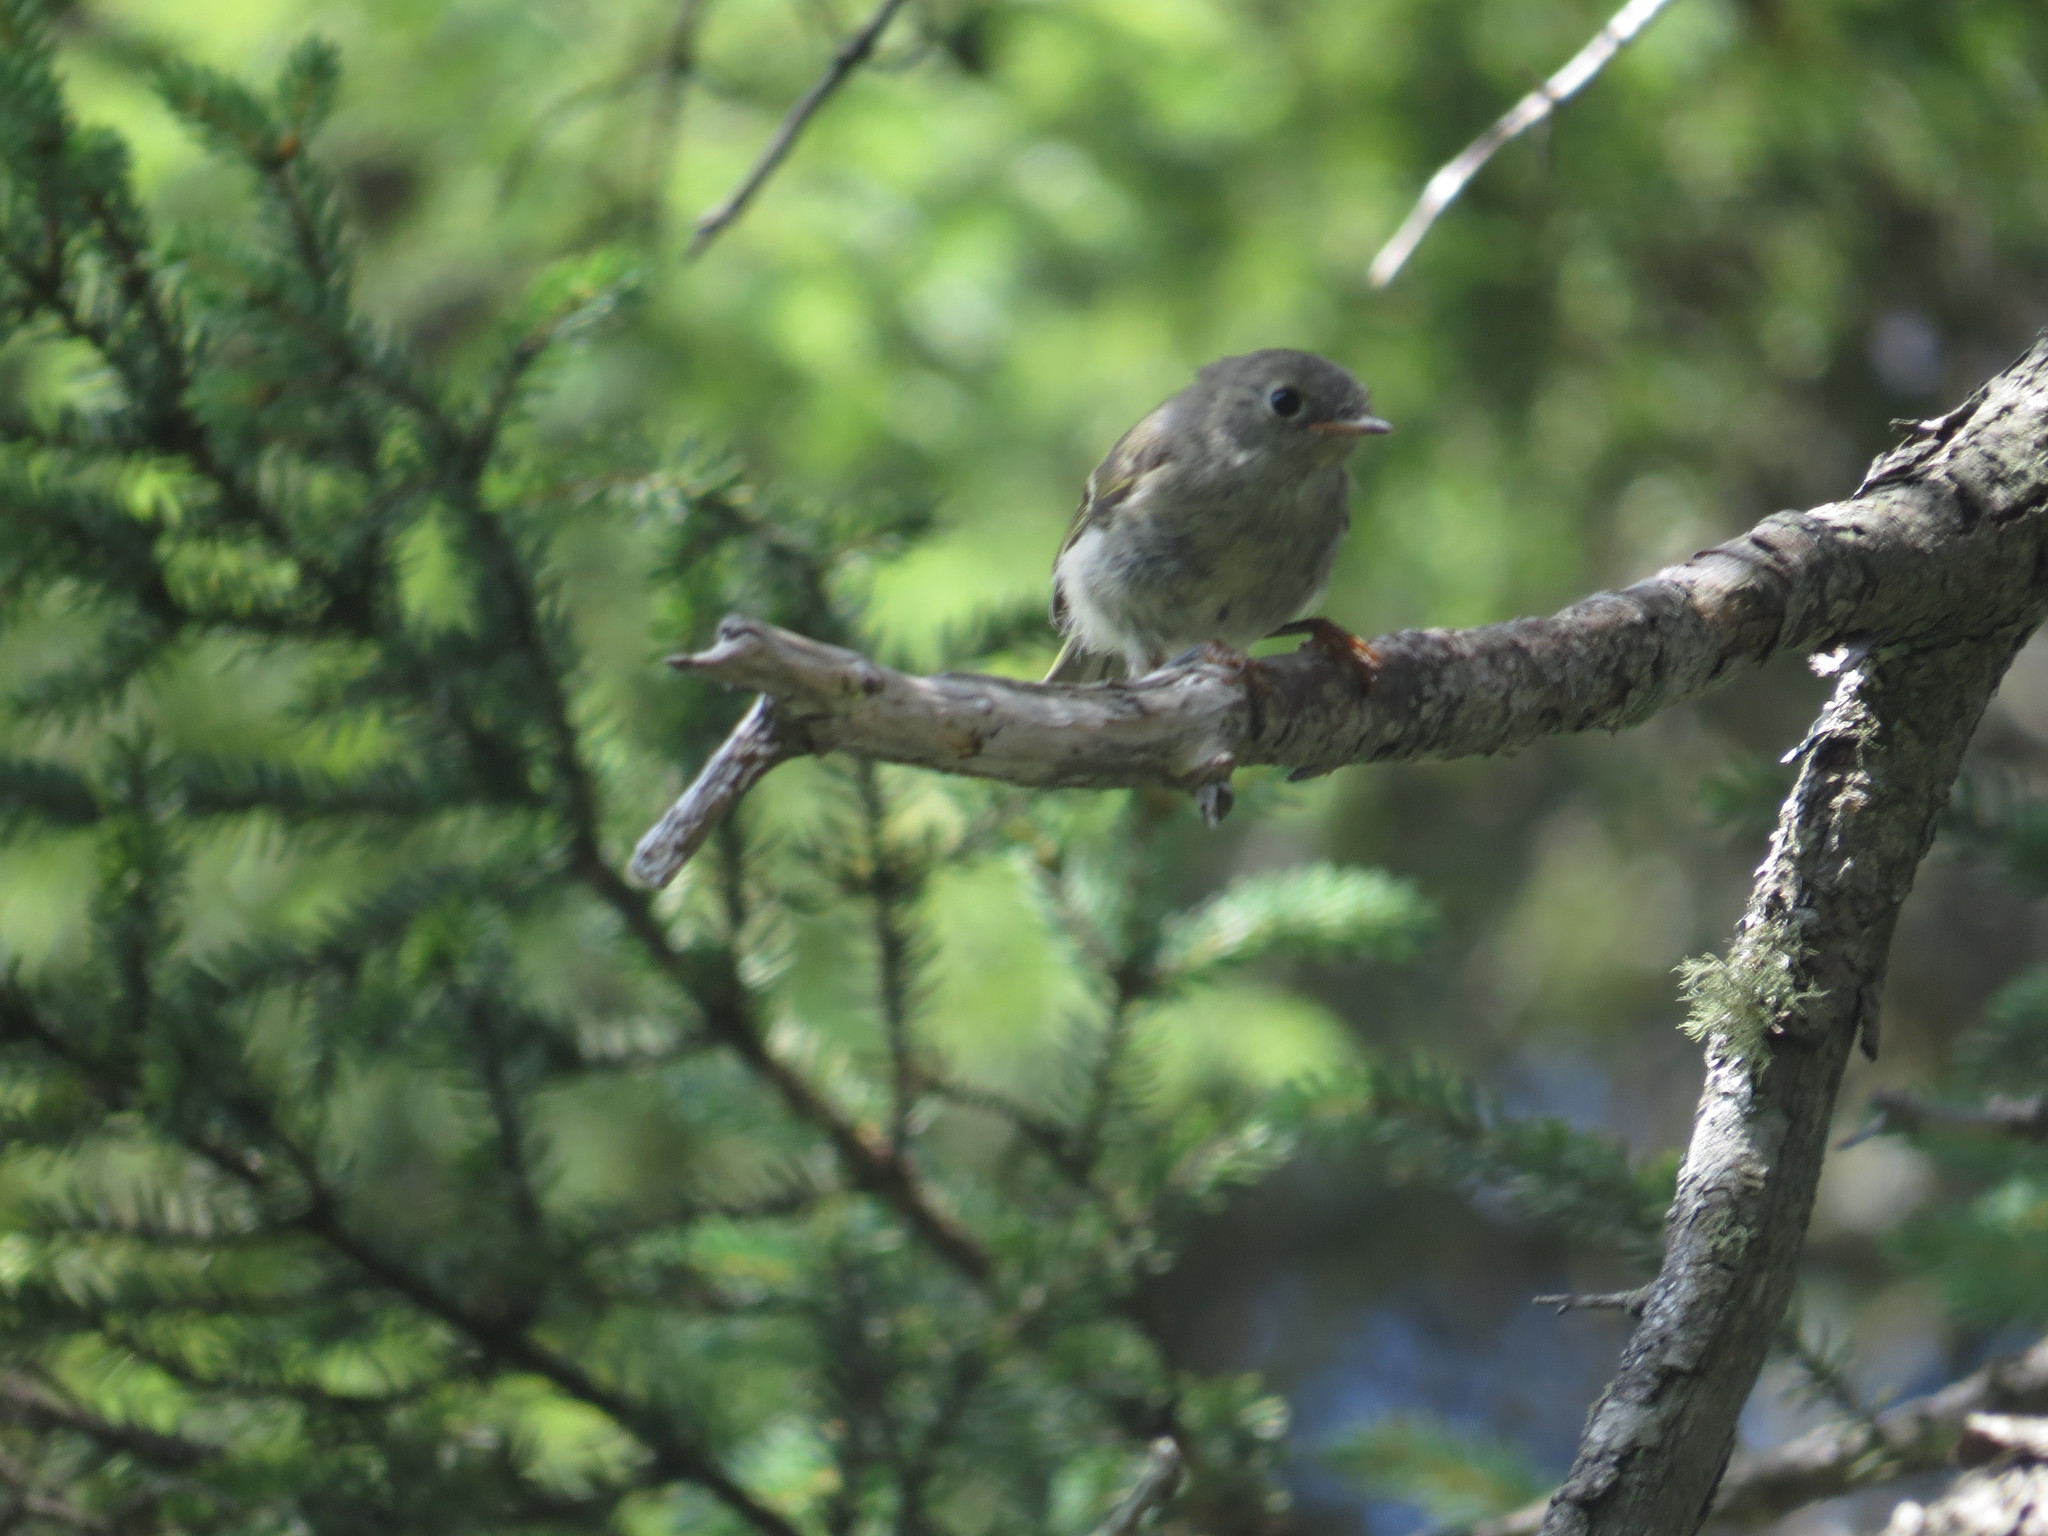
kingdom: Animalia
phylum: Chordata
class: Aves
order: Passeriformes
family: Regulidae
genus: Regulus
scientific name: Regulus calendula
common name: Ruby-crowned kinglet
